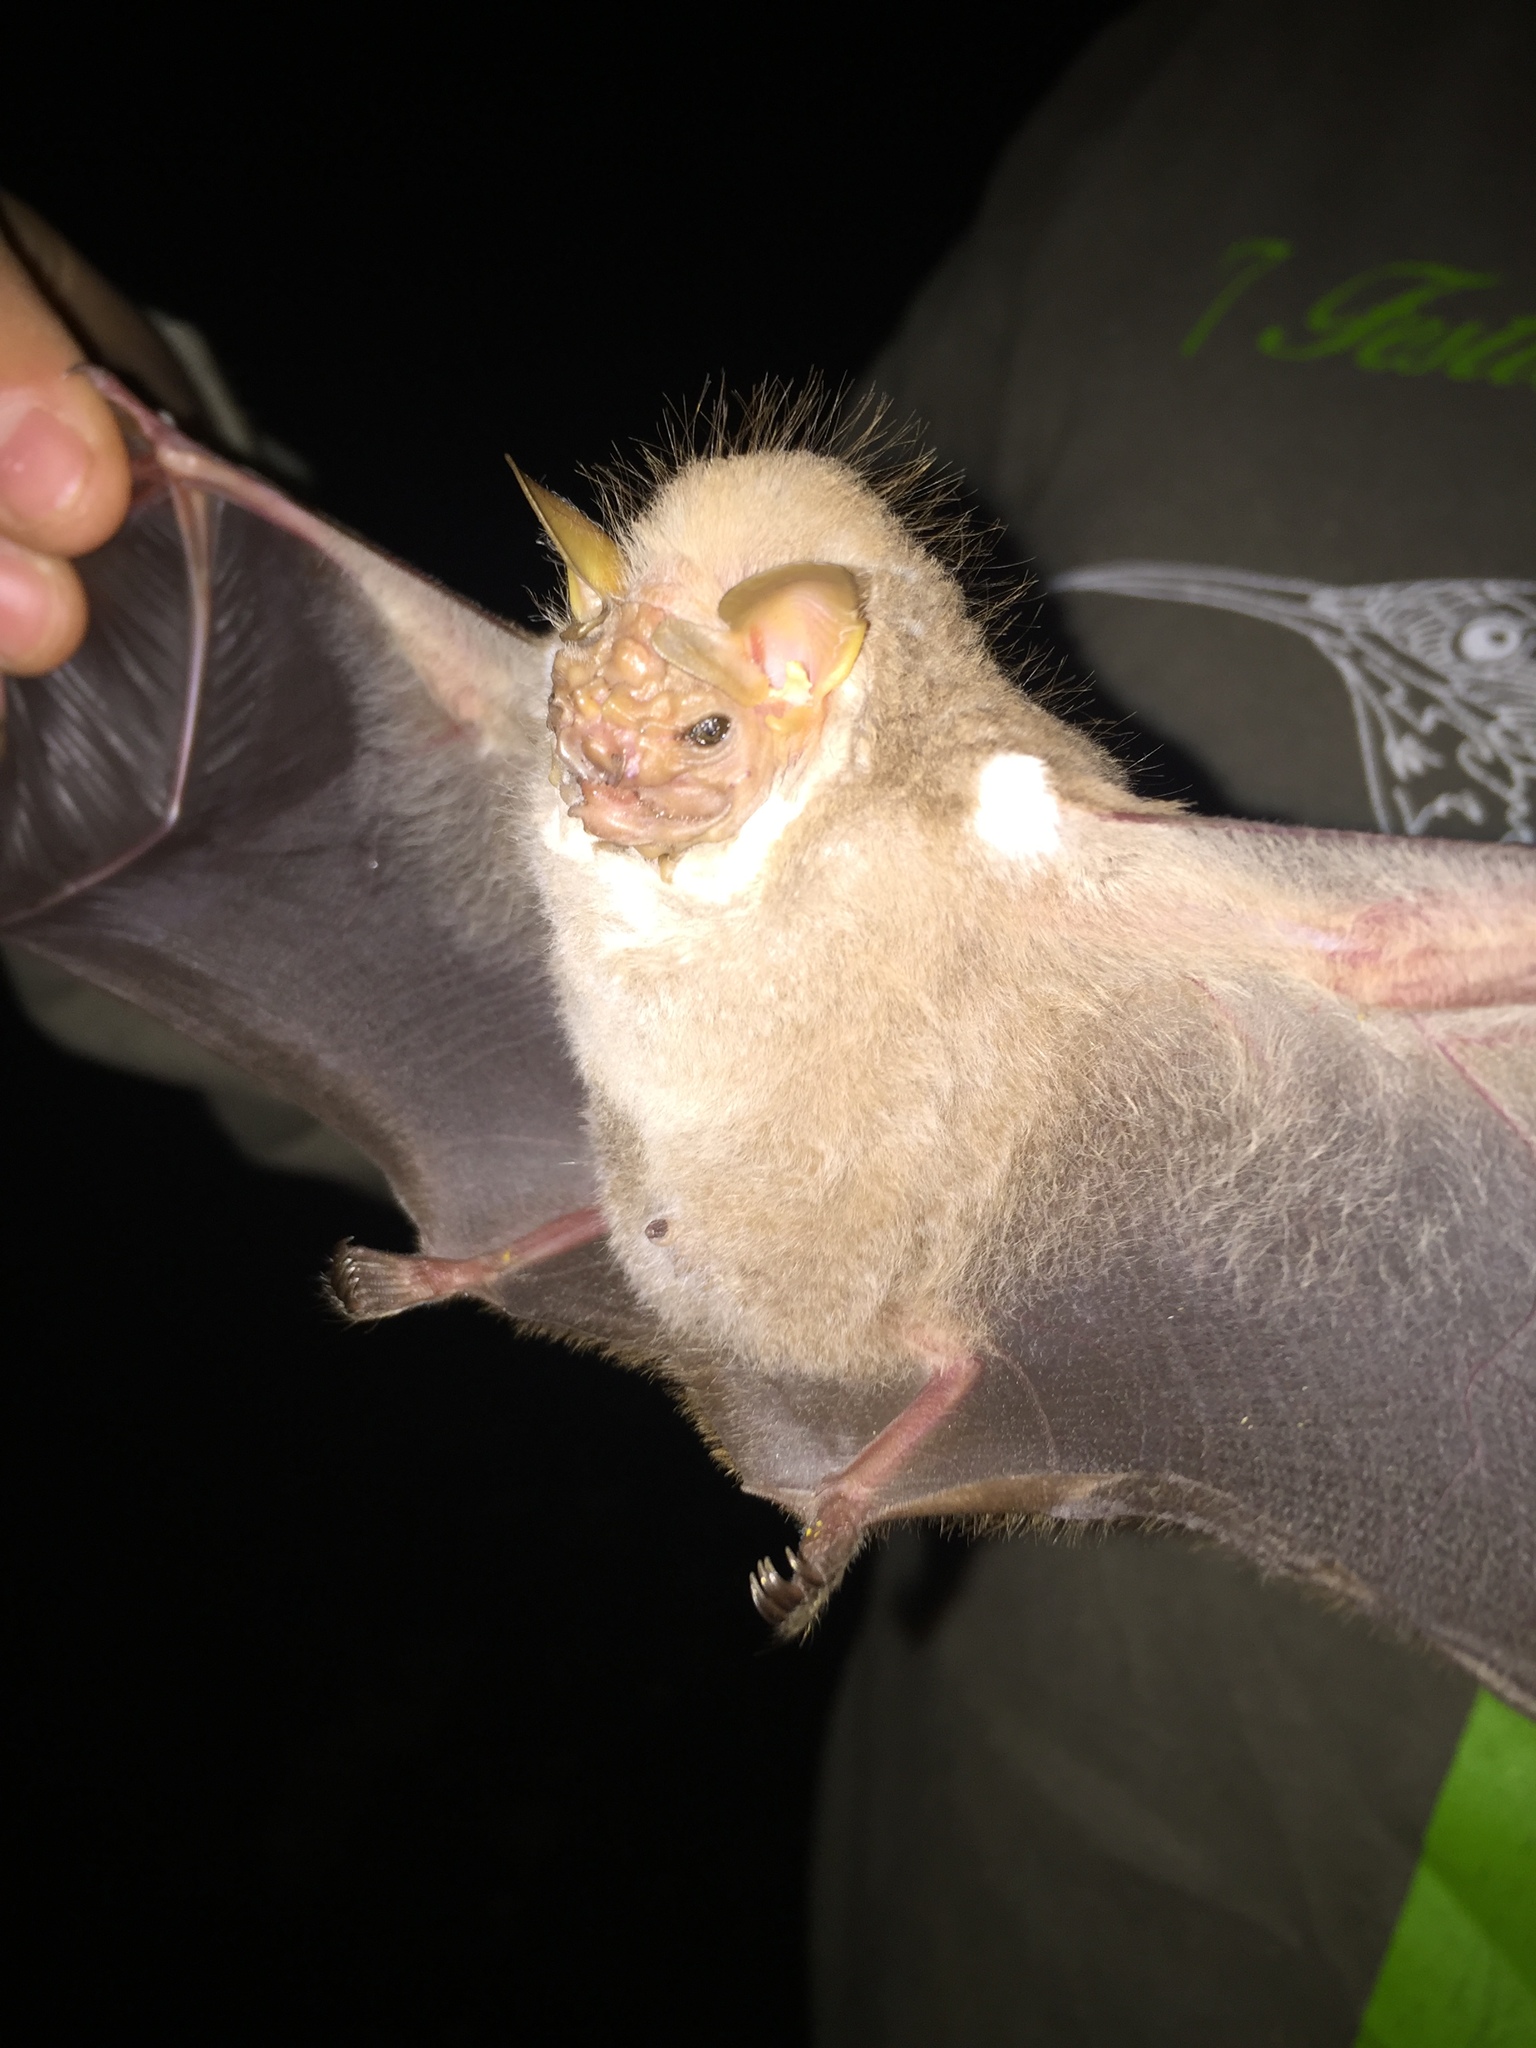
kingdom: Animalia
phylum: Chordata
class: Mammalia
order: Chiroptera
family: Phyllostomidae
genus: Centurio
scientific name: Centurio senex
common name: Wrinkle-faced bat
